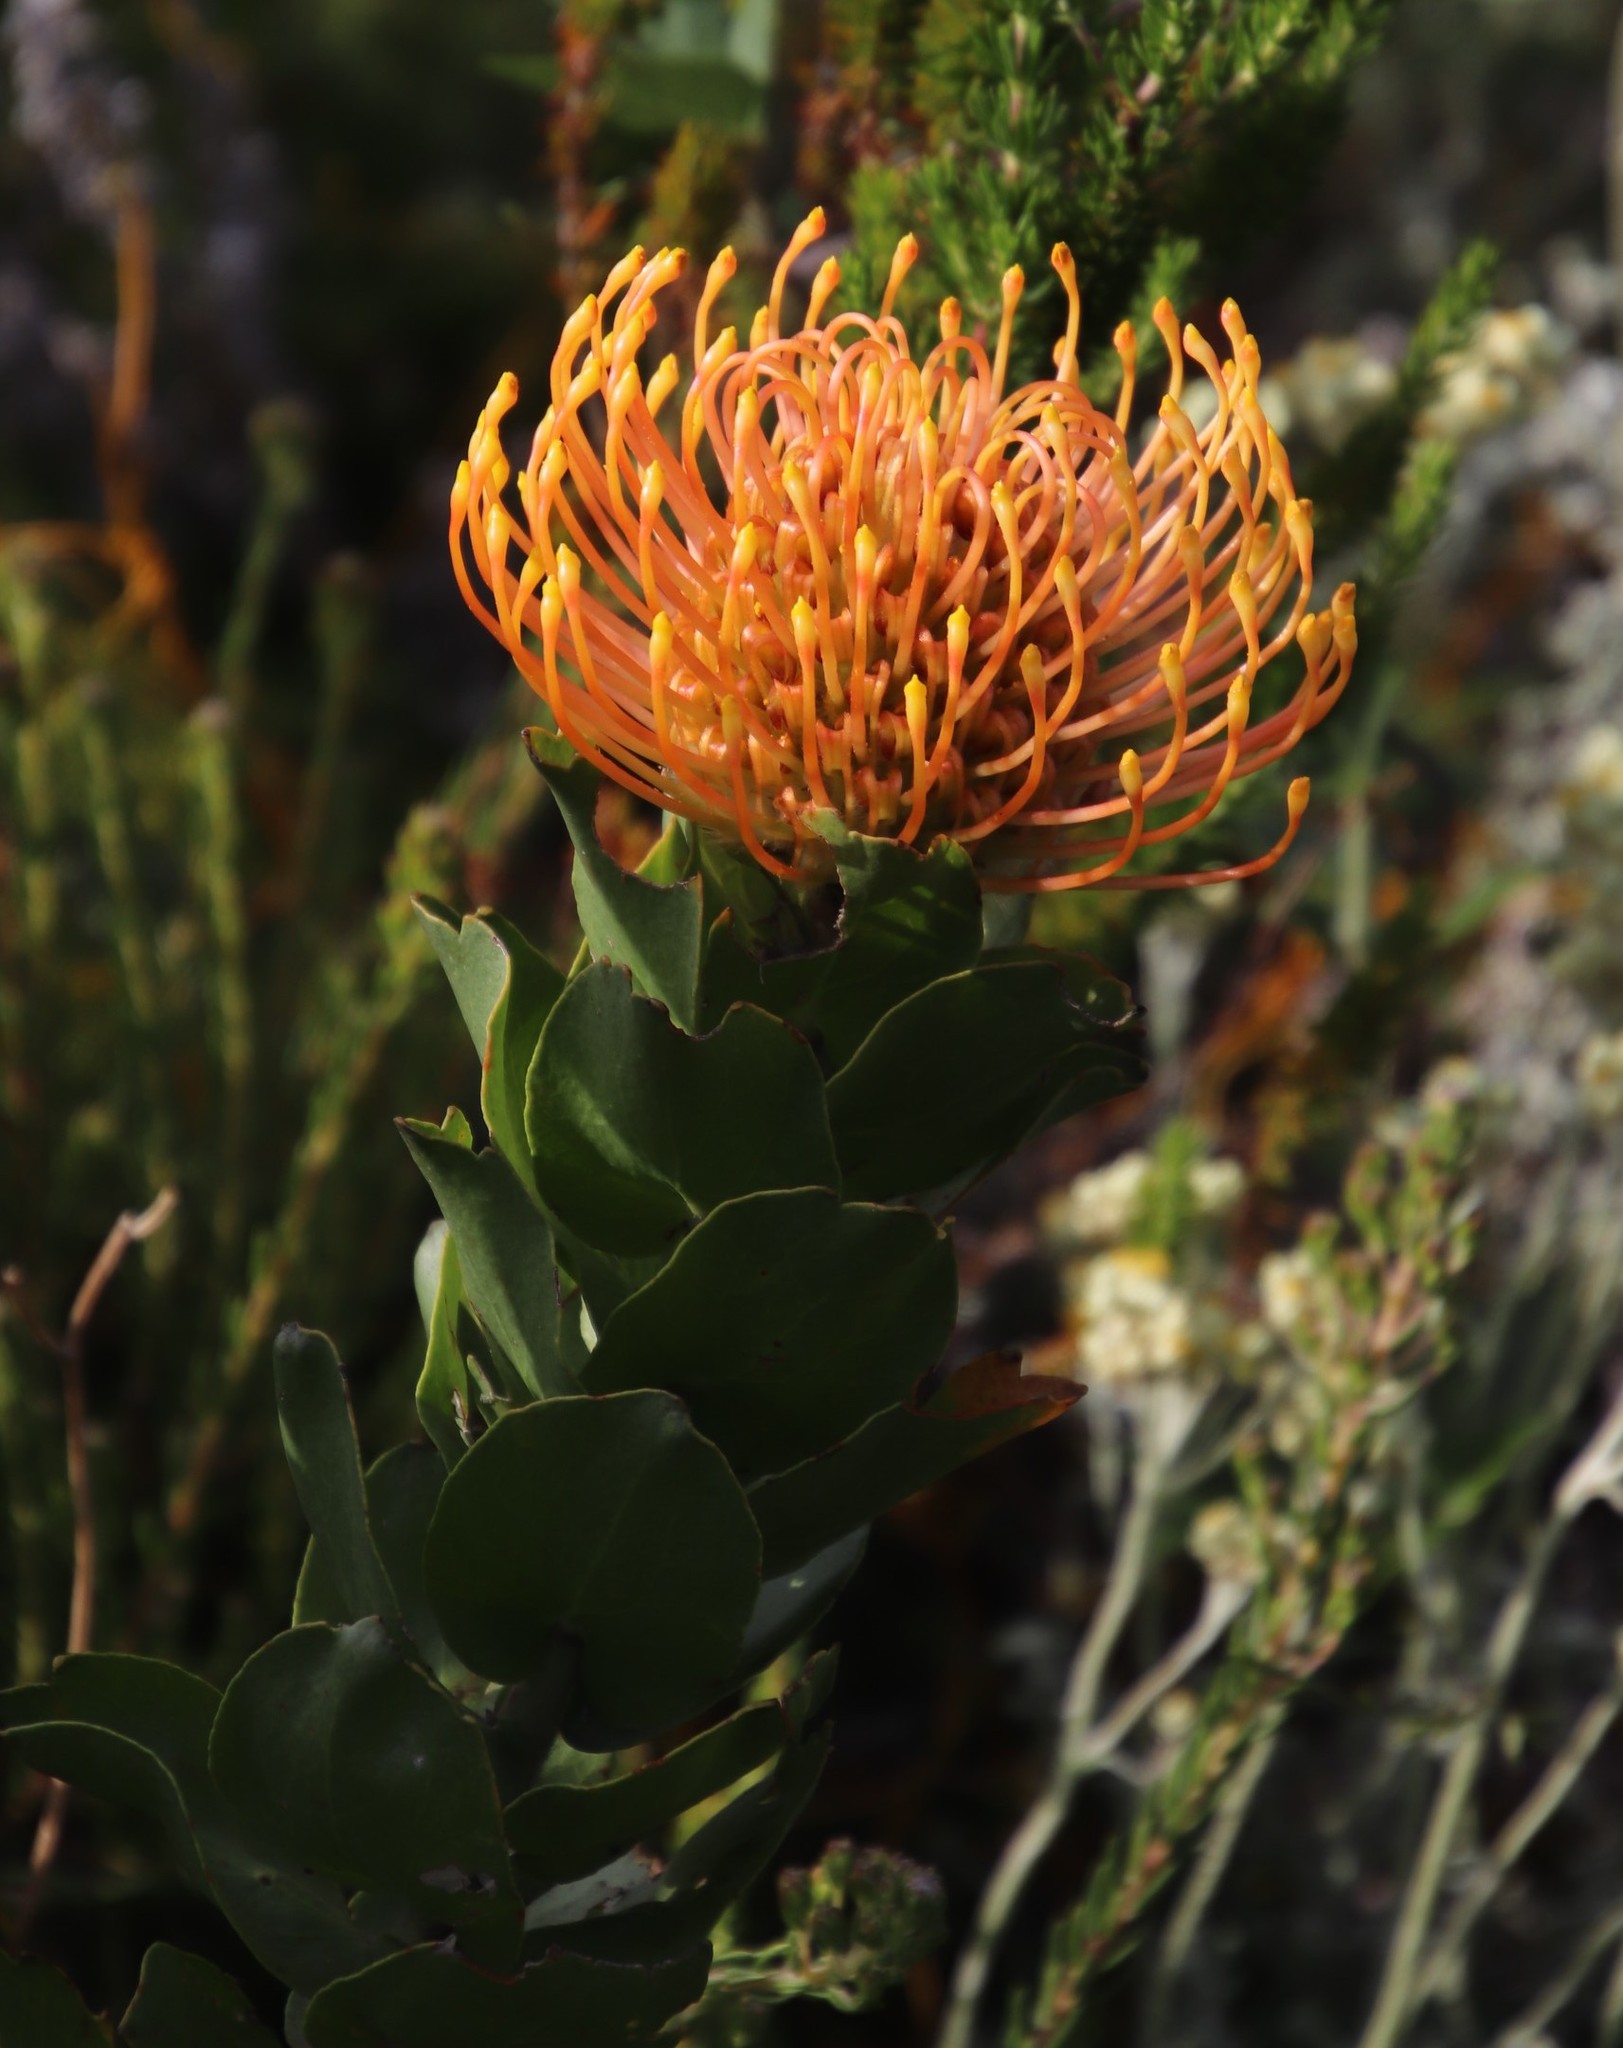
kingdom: Plantae
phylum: Tracheophyta
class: Magnoliopsida
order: Proteales
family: Proteaceae
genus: Leucospermum
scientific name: Leucospermum patersonii
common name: False tree pincushion
